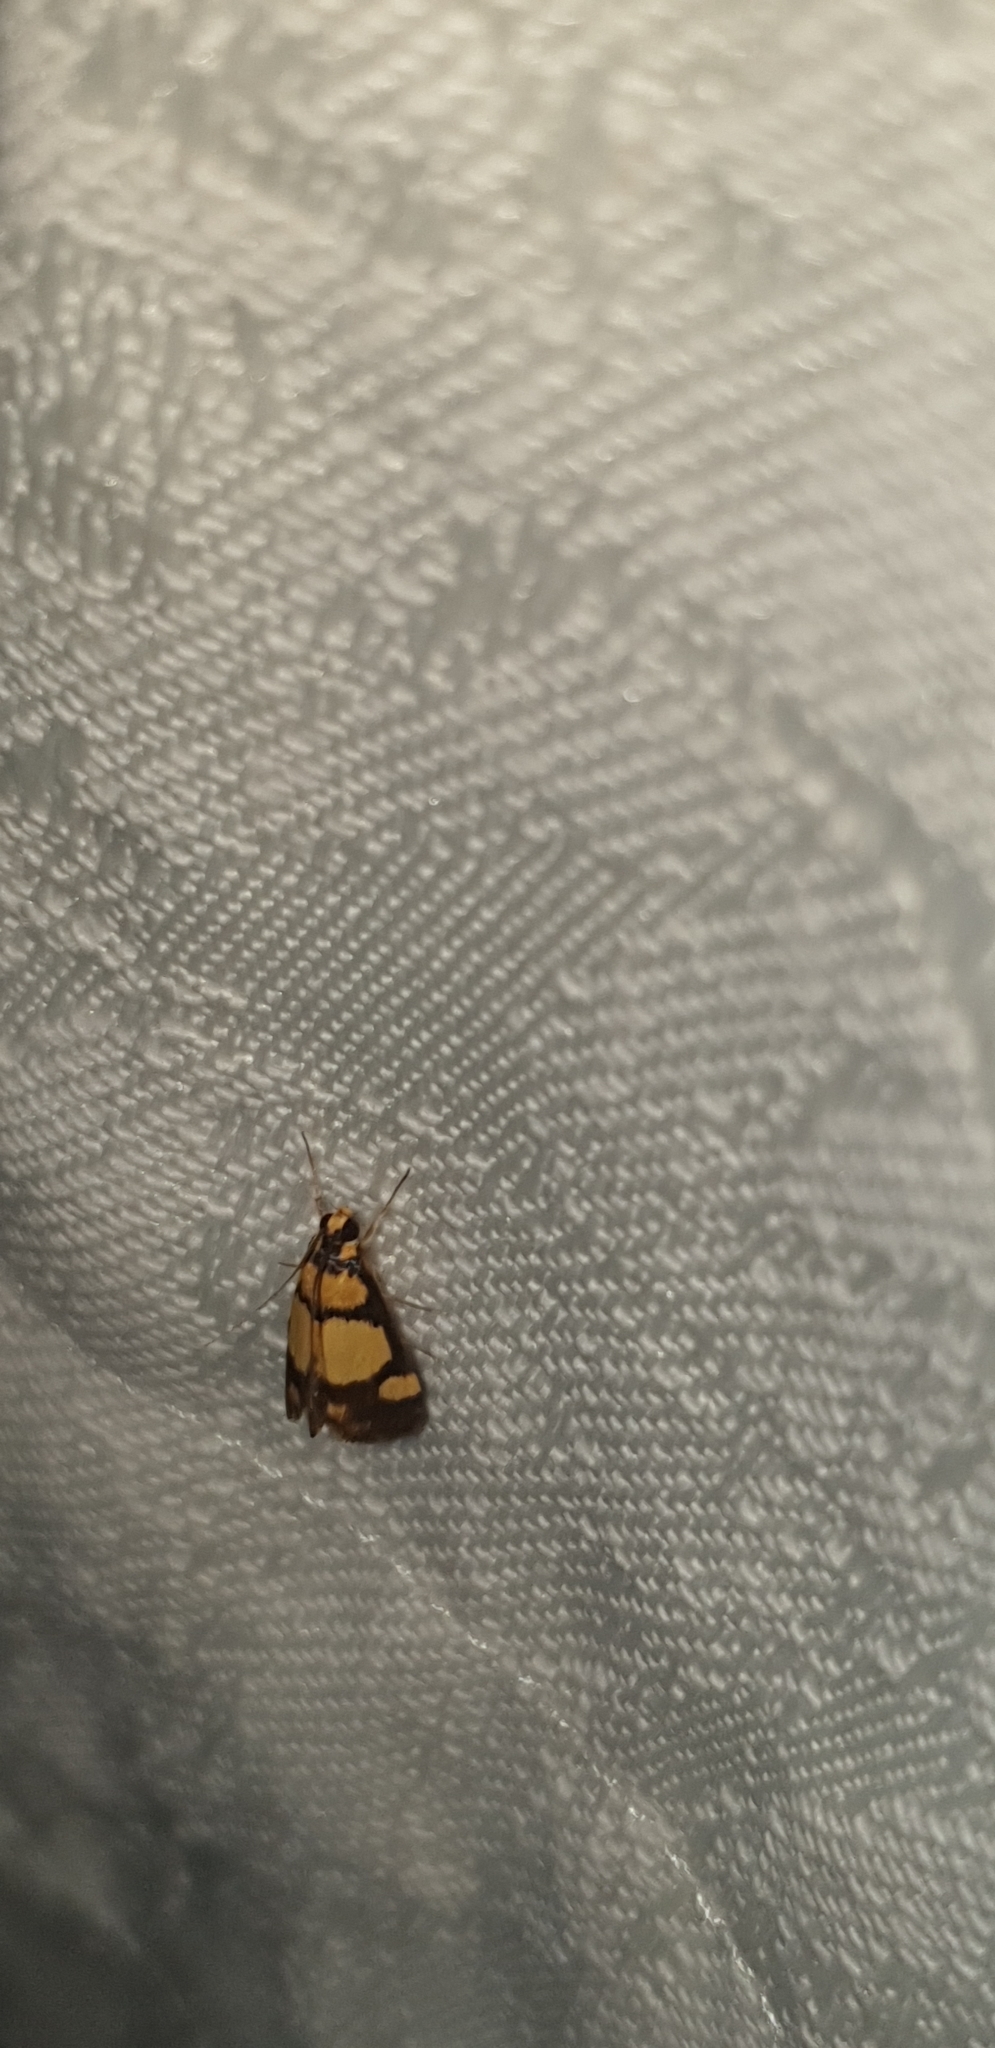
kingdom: Animalia
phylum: Arthropoda
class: Insecta
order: Lepidoptera
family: Crambidae
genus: Deuterarcha
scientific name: Deuterarcha xanthomela
